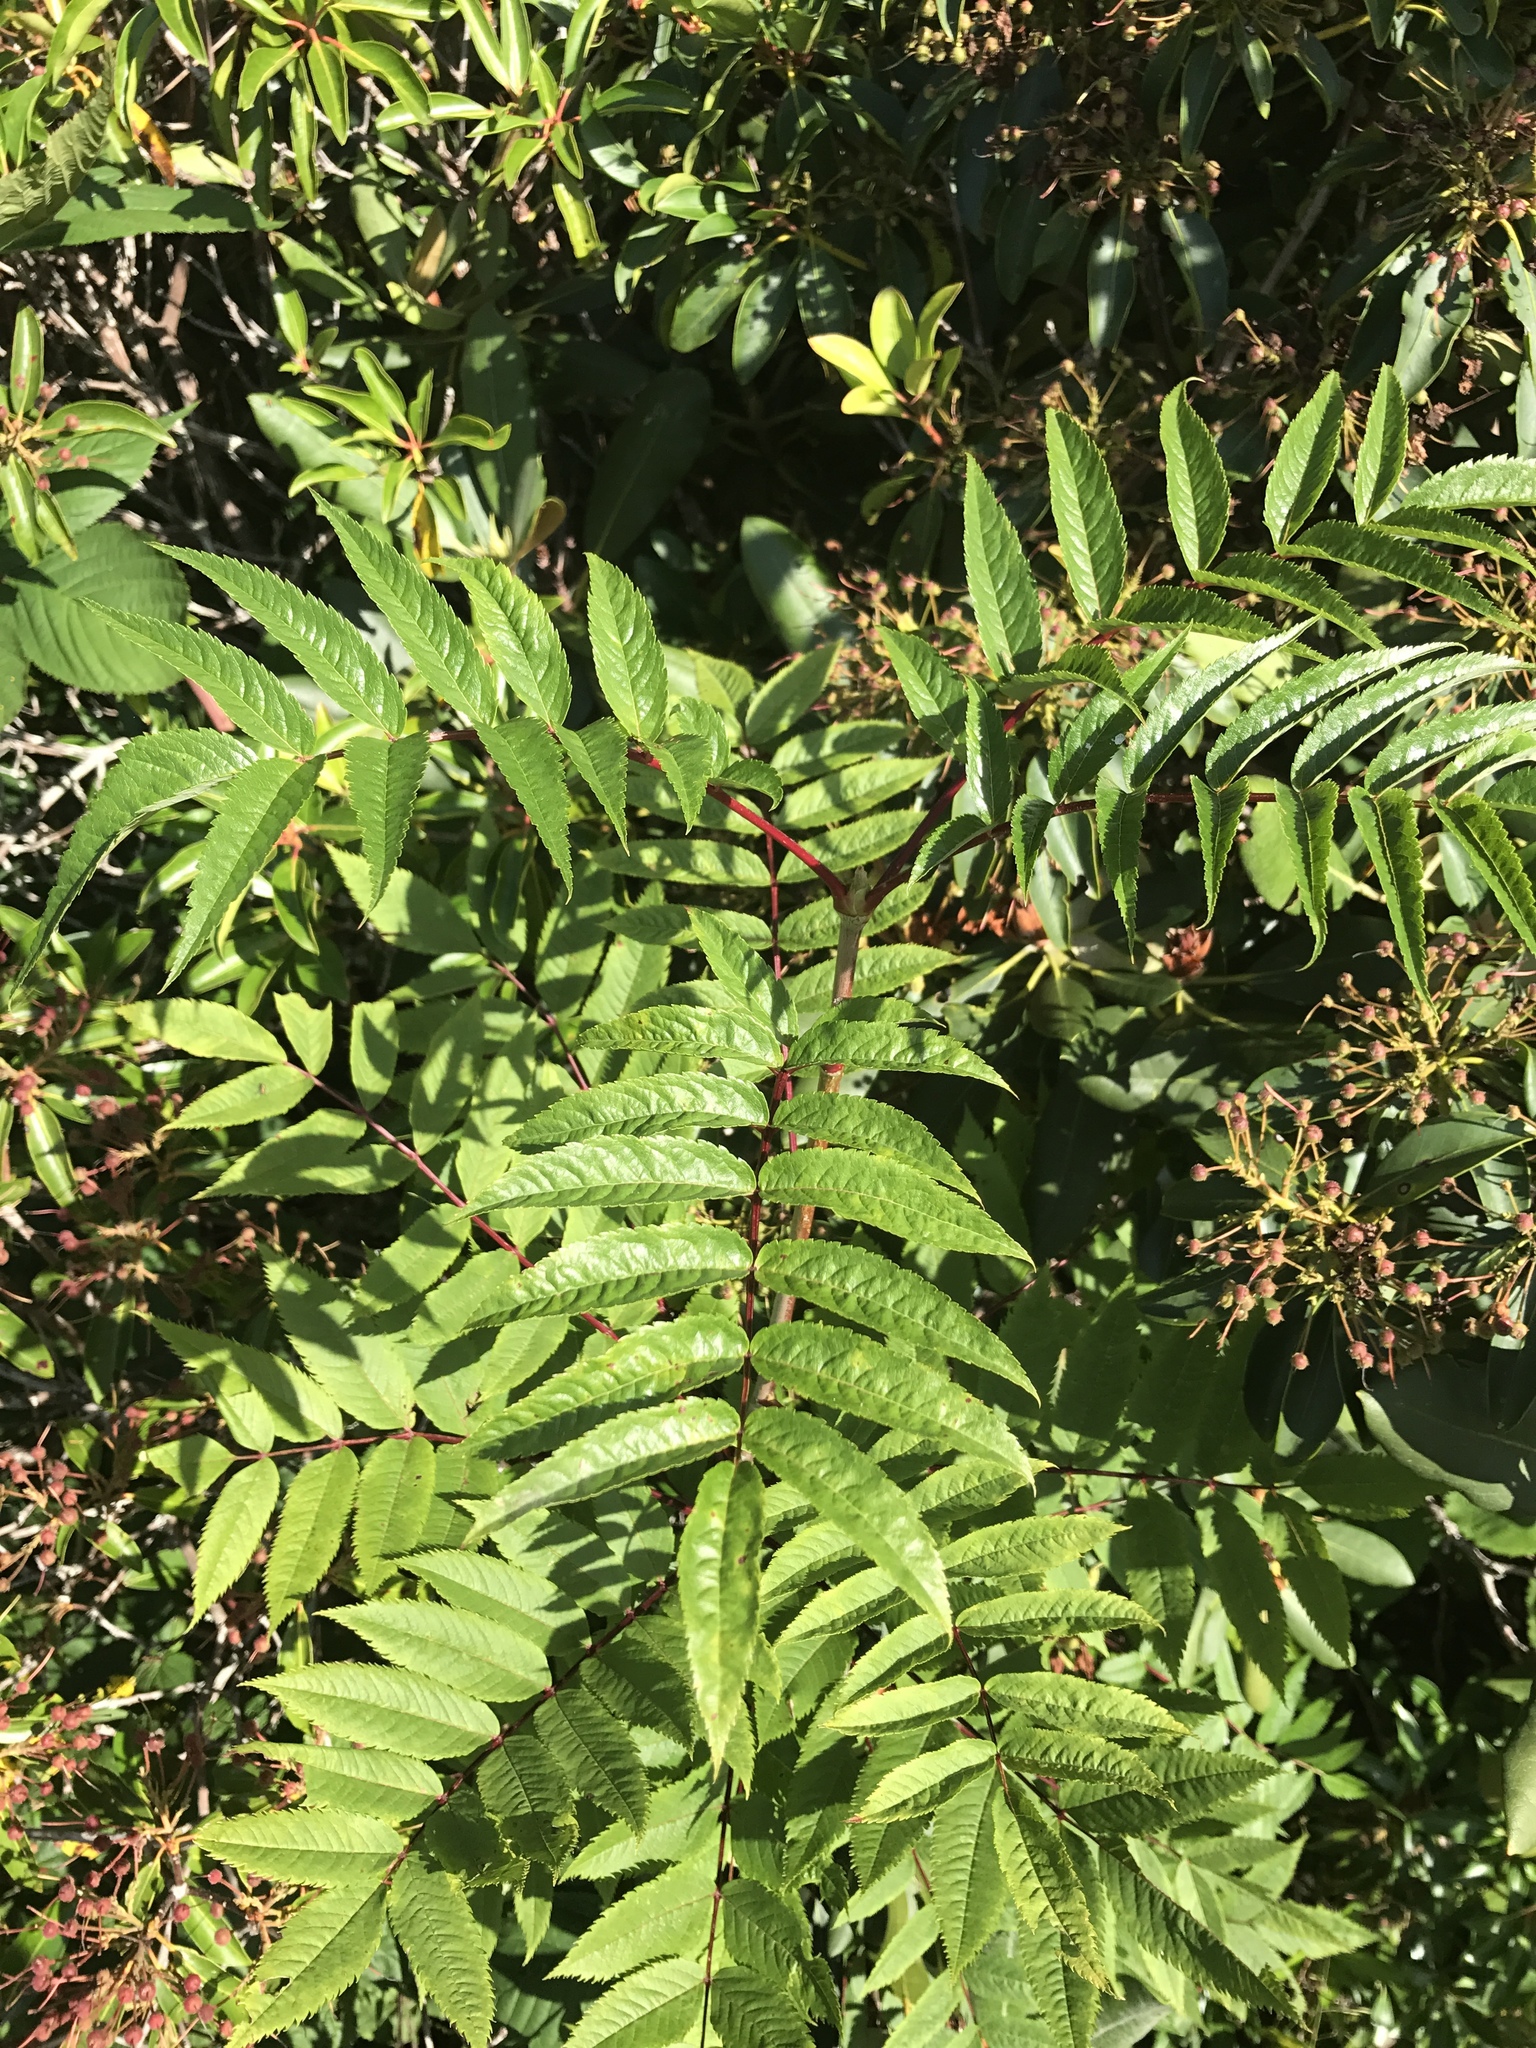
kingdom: Plantae
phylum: Tracheophyta
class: Magnoliopsida
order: Rosales
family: Rosaceae
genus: Sorbus
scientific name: Sorbus americana
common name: American mountain-ash
